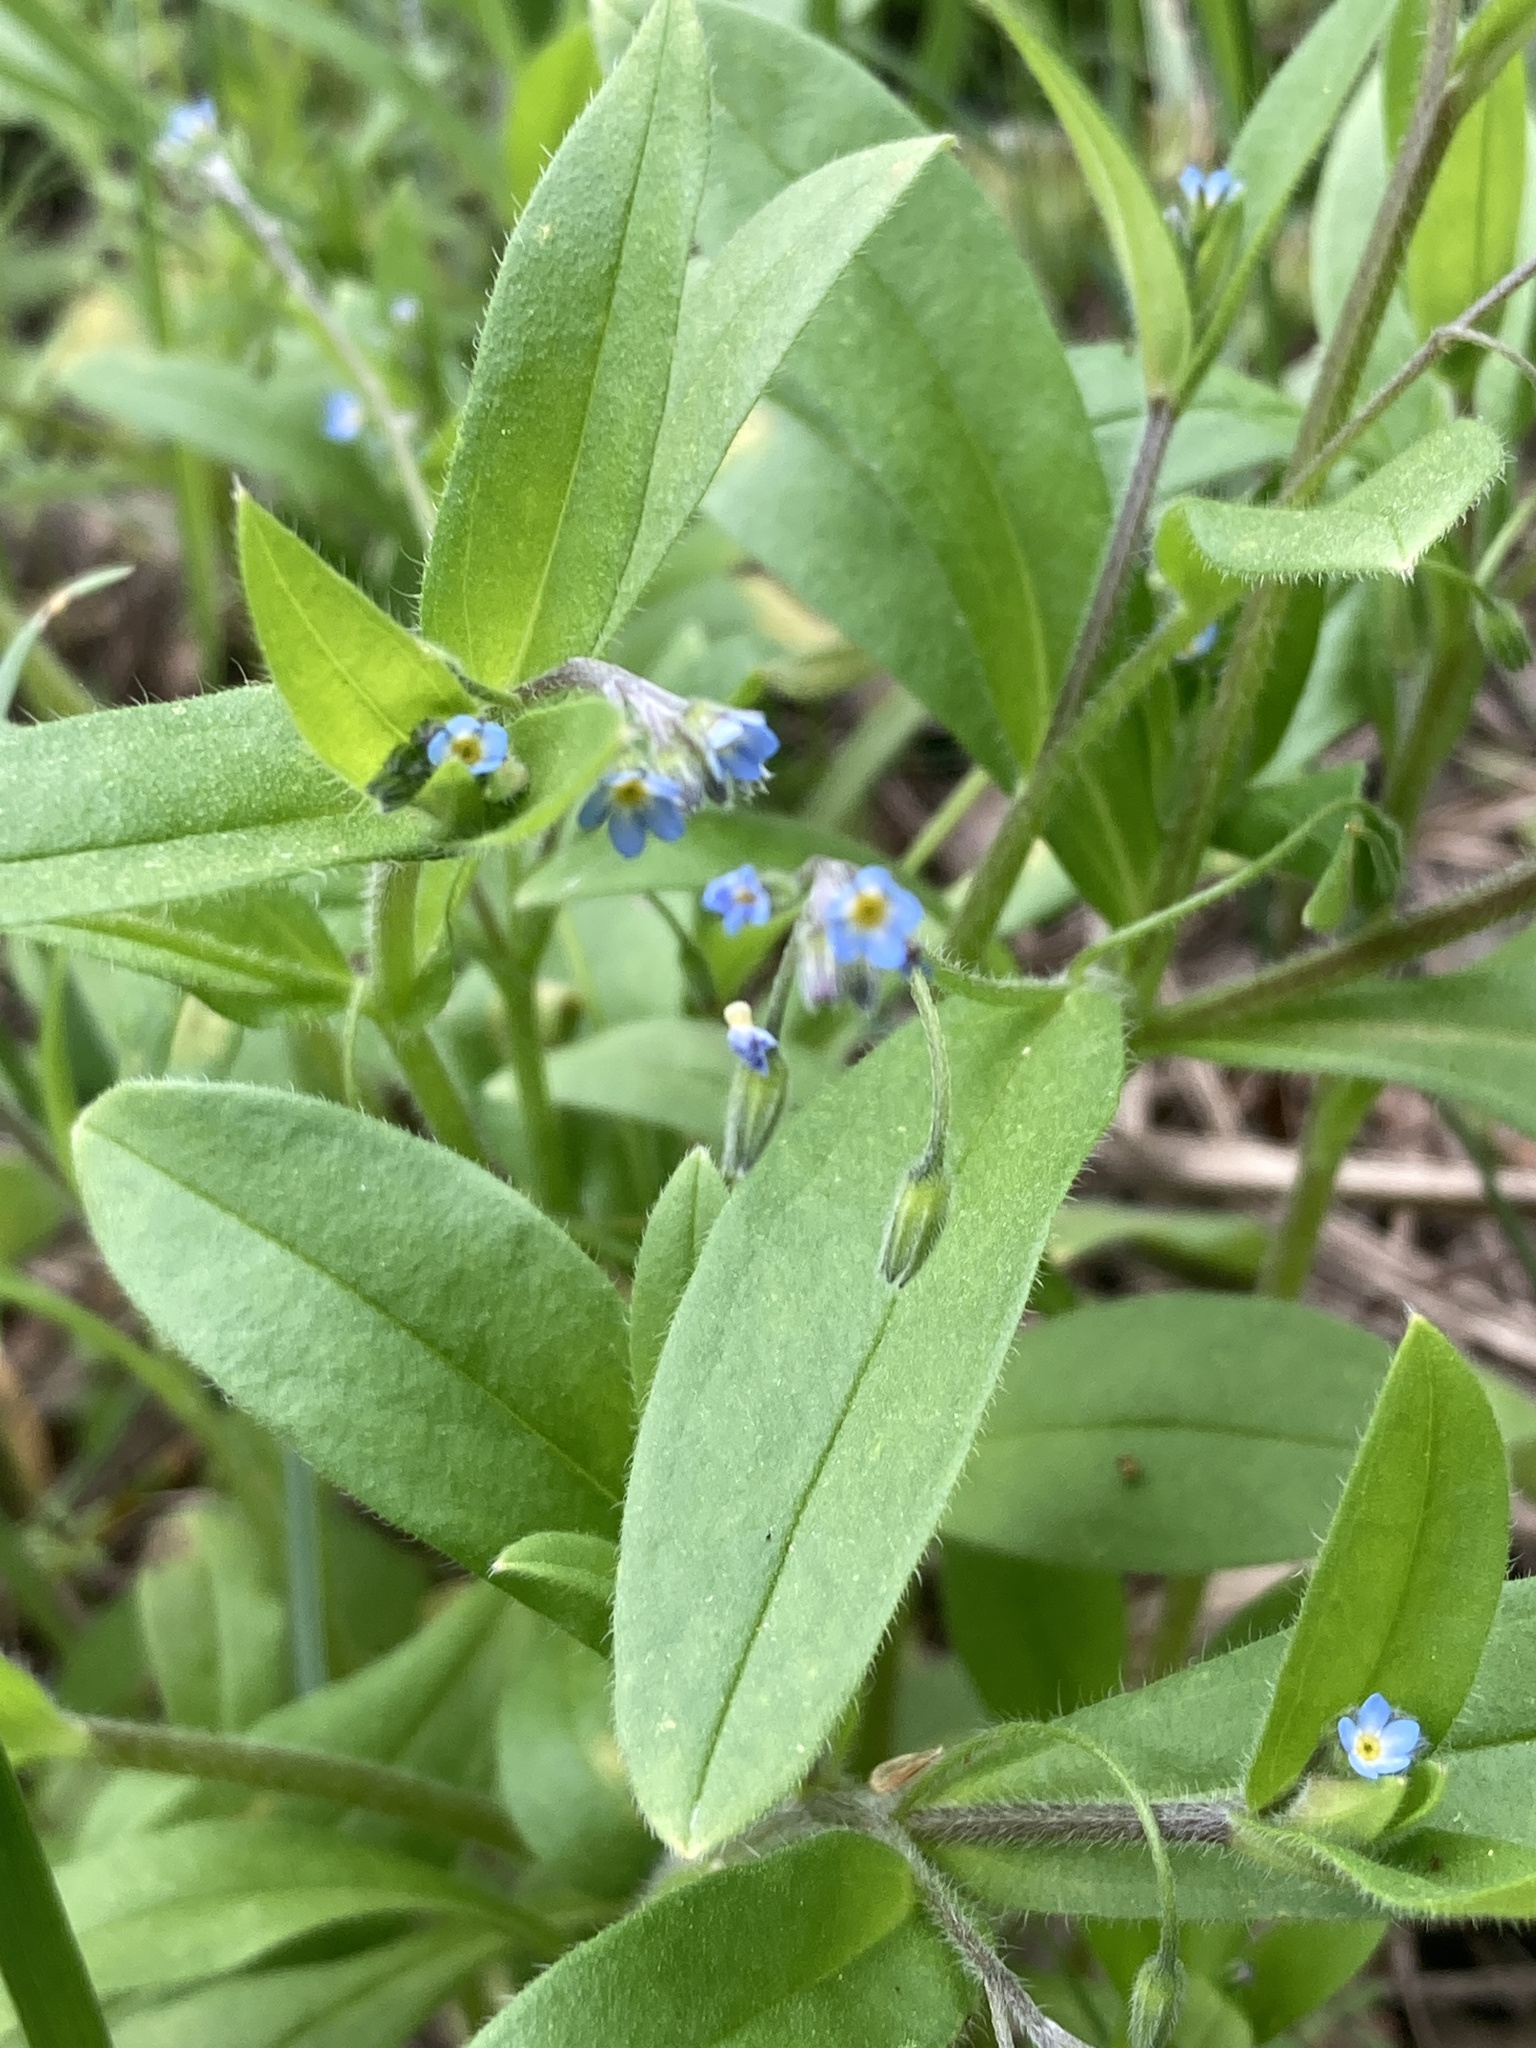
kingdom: Plantae
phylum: Tracheophyta
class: Magnoliopsida
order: Boraginales
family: Boraginaceae
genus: Myosotis
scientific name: Myosotis sparsiflora
